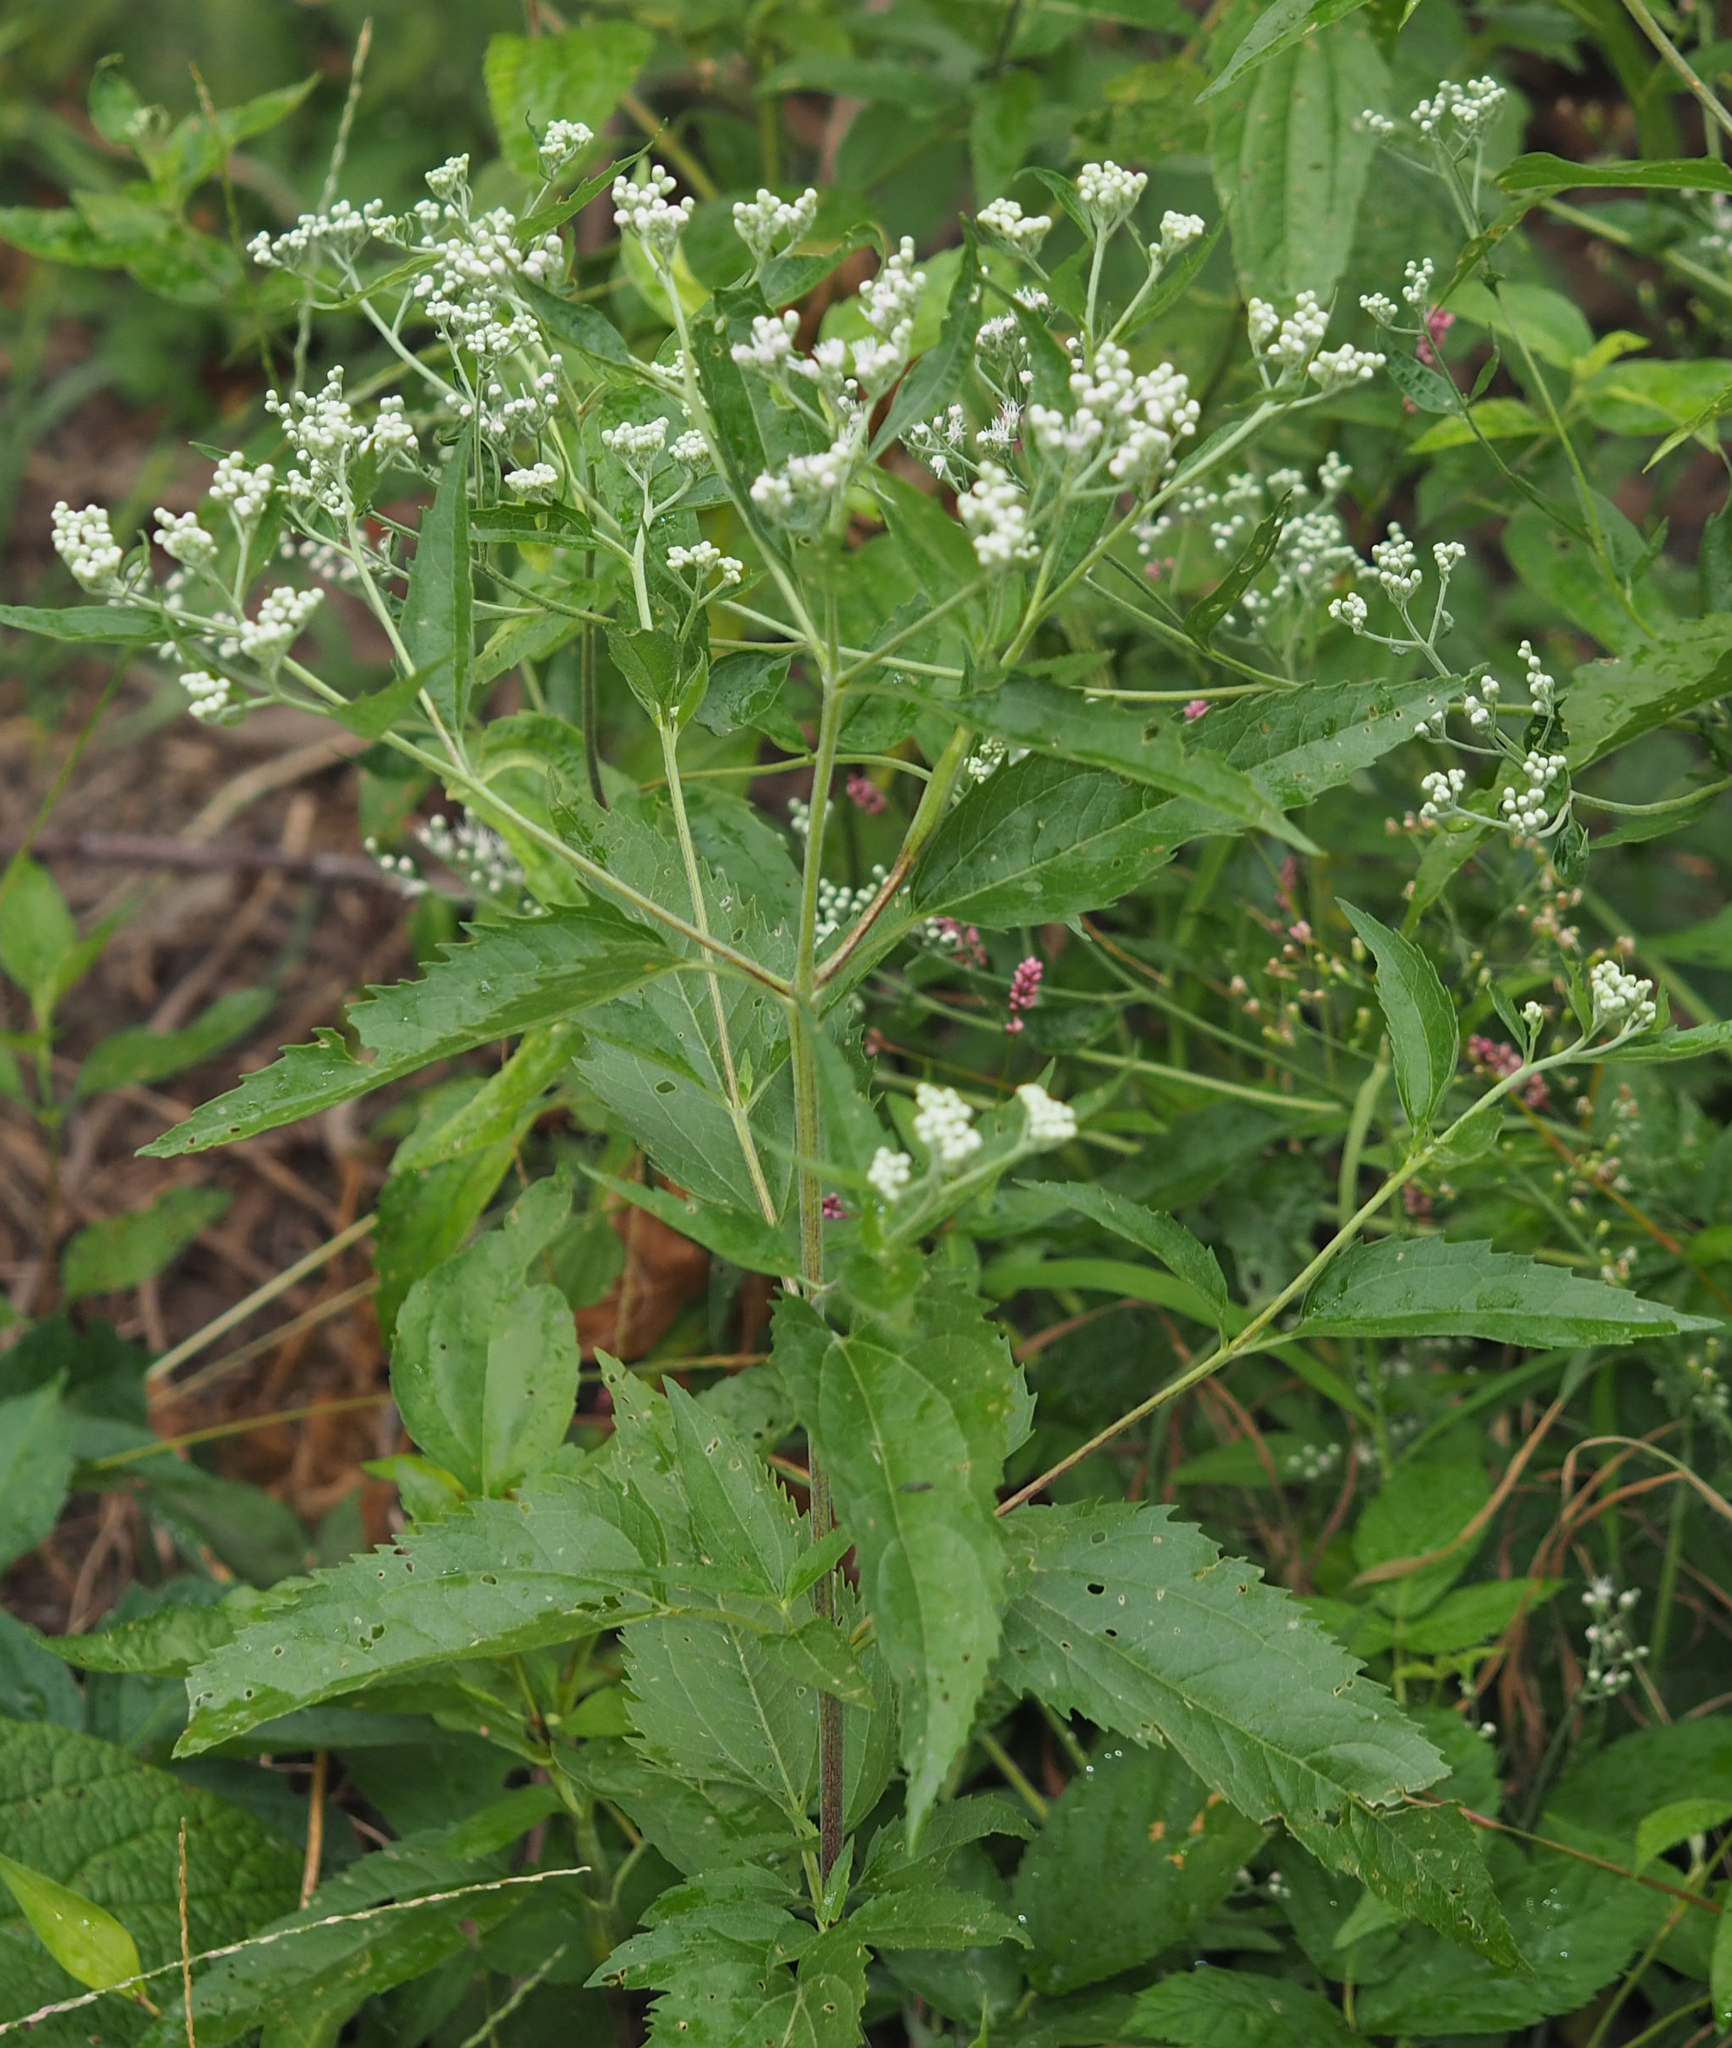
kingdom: Plantae
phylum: Tracheophyta
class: Magnoliopsida
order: Asterales
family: Asteraceae
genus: Eupatorium
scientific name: Eupatorium serotinum
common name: Late boneset
